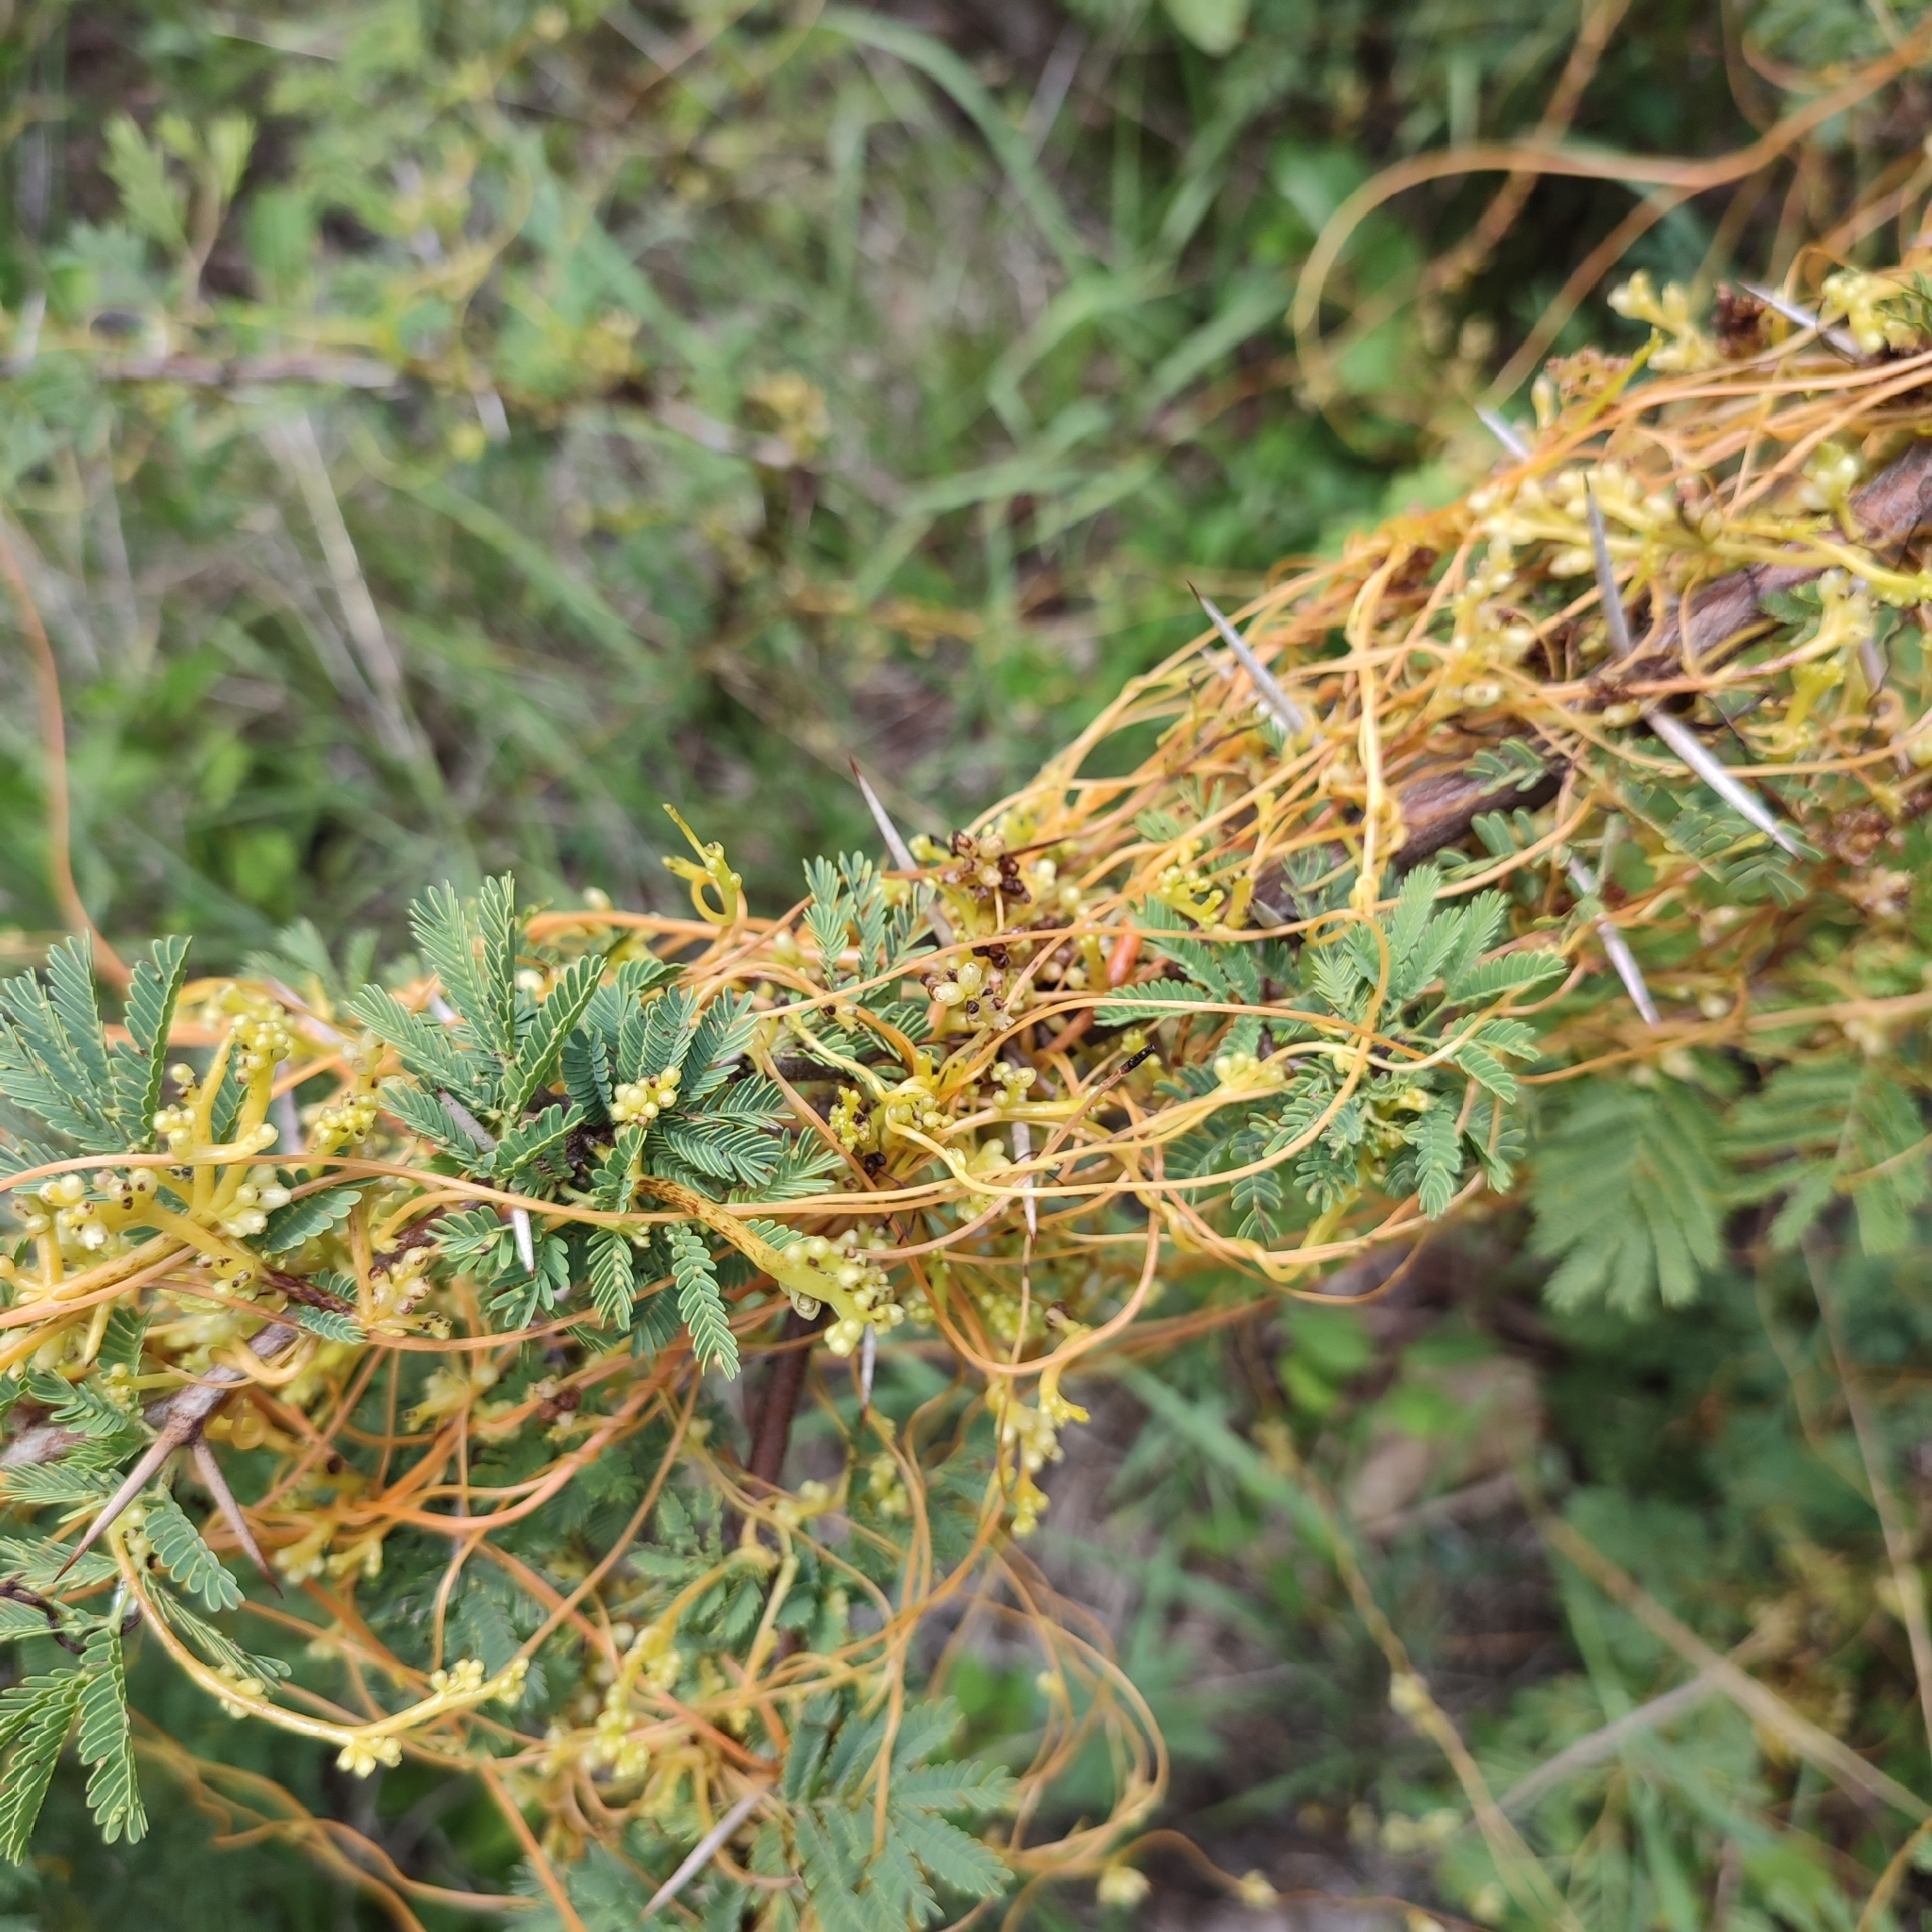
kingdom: Plantae
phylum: Tracheophyta
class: Magnoliopsida
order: Solanales
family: Convolvulaceae
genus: Cuscuta
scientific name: Cuscuta americana
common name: American dodder
